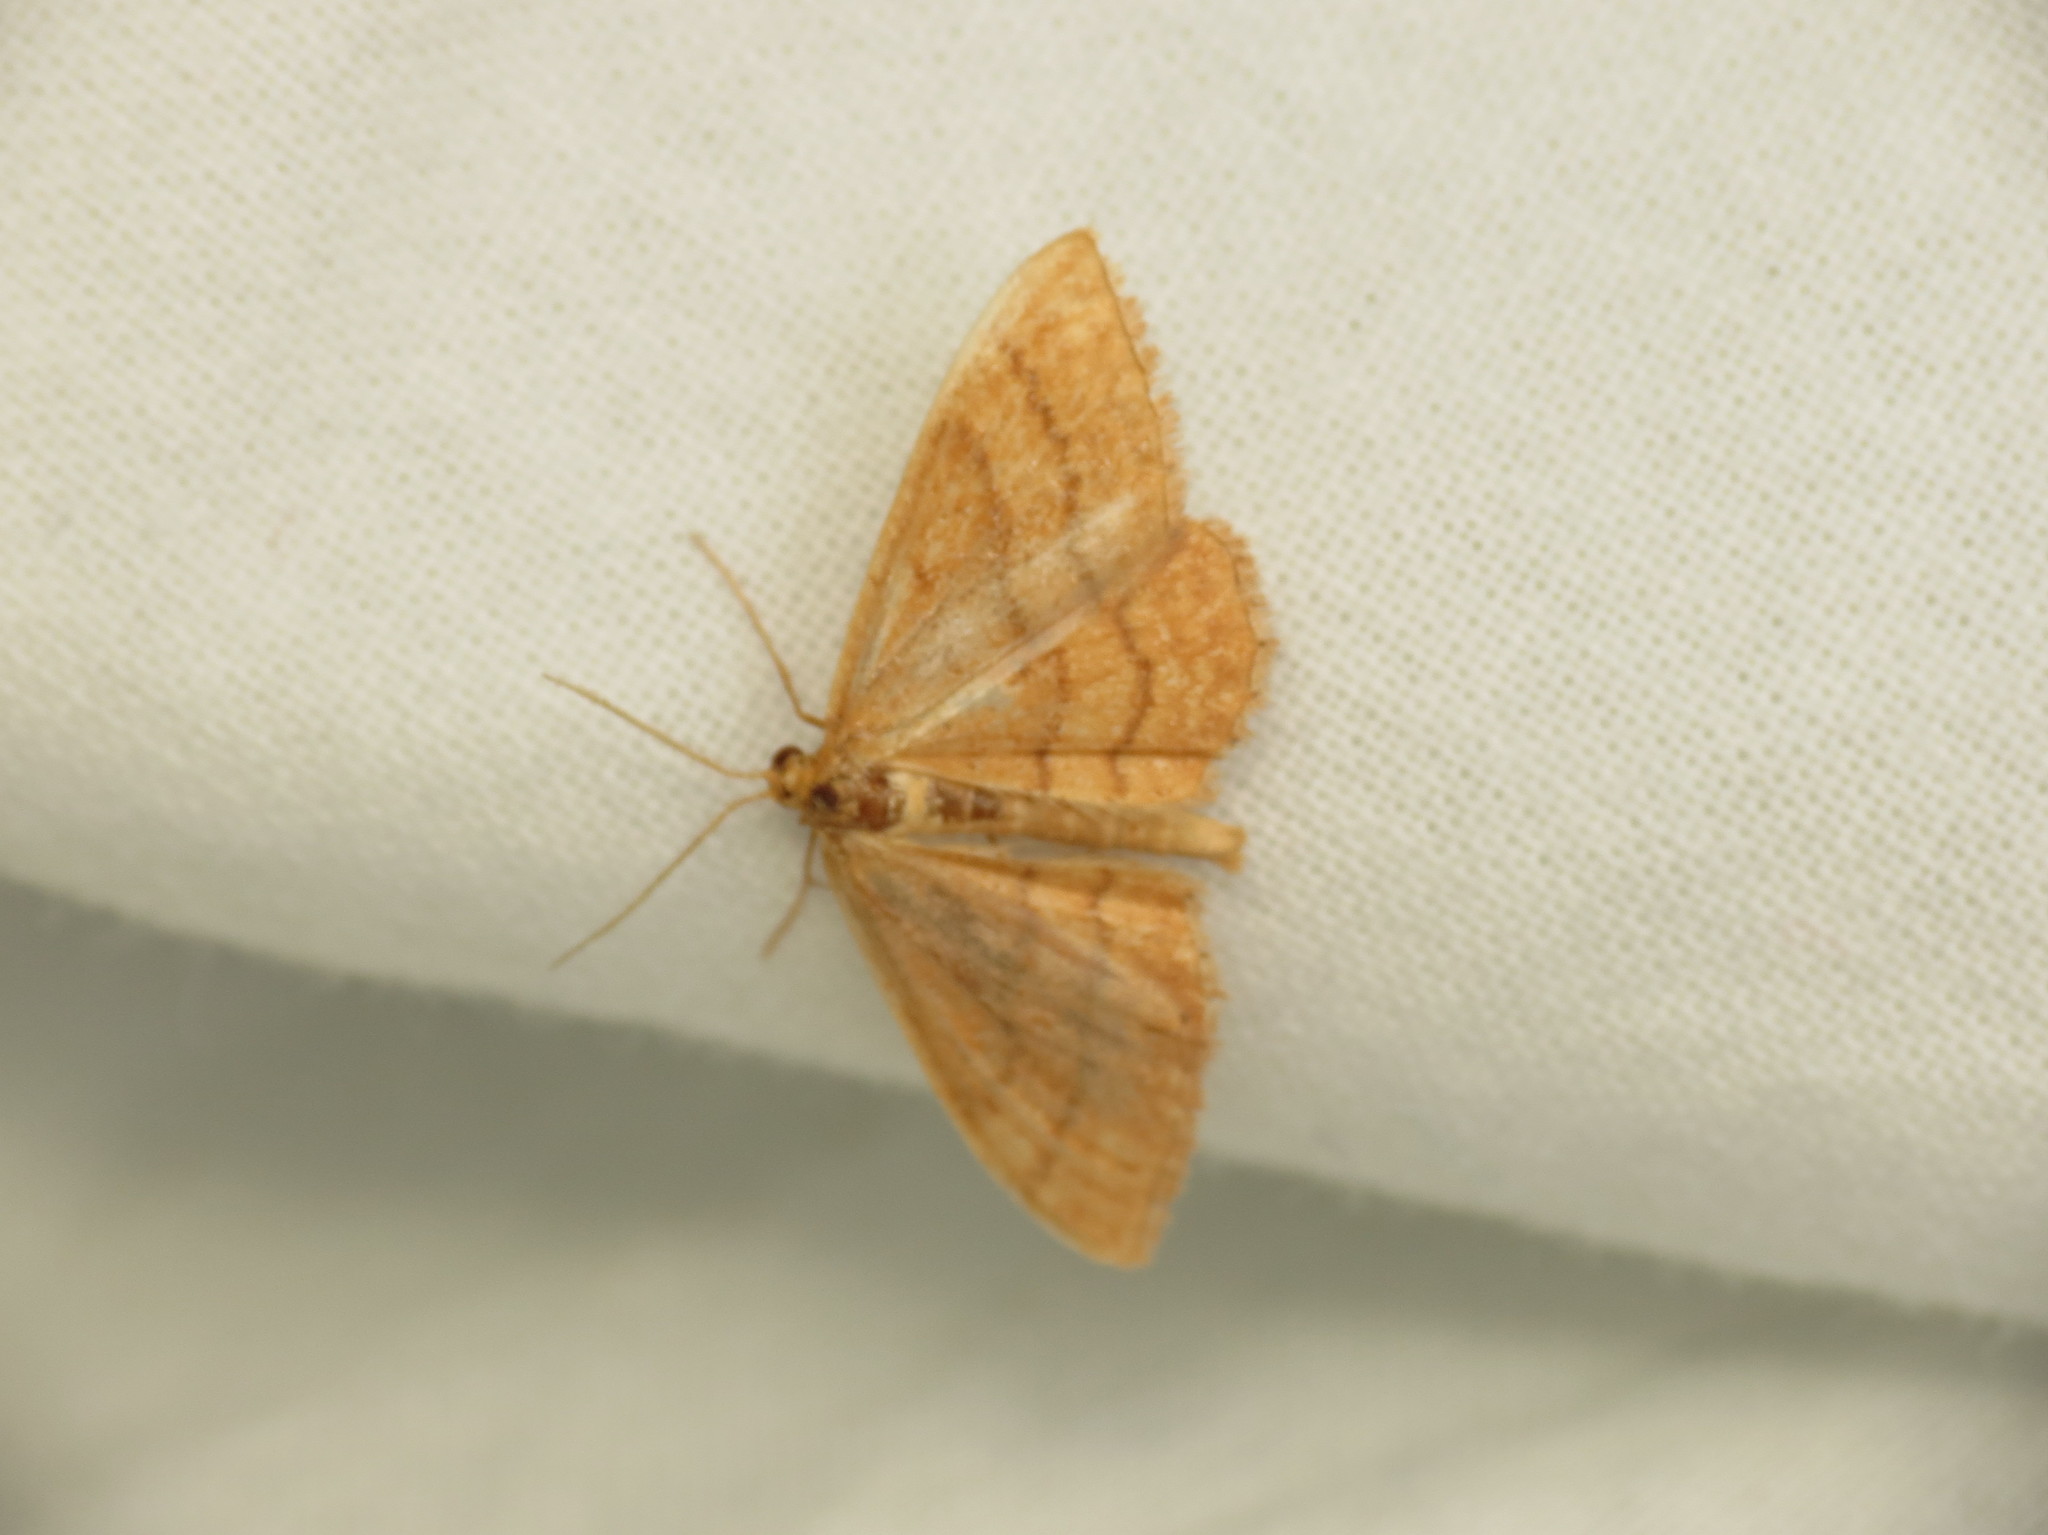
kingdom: Animalia
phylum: Arthropoda
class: Insecta
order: Lepidoptera
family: Geometridae
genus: Idaea
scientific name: Idaea ochrata
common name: Bright wave
